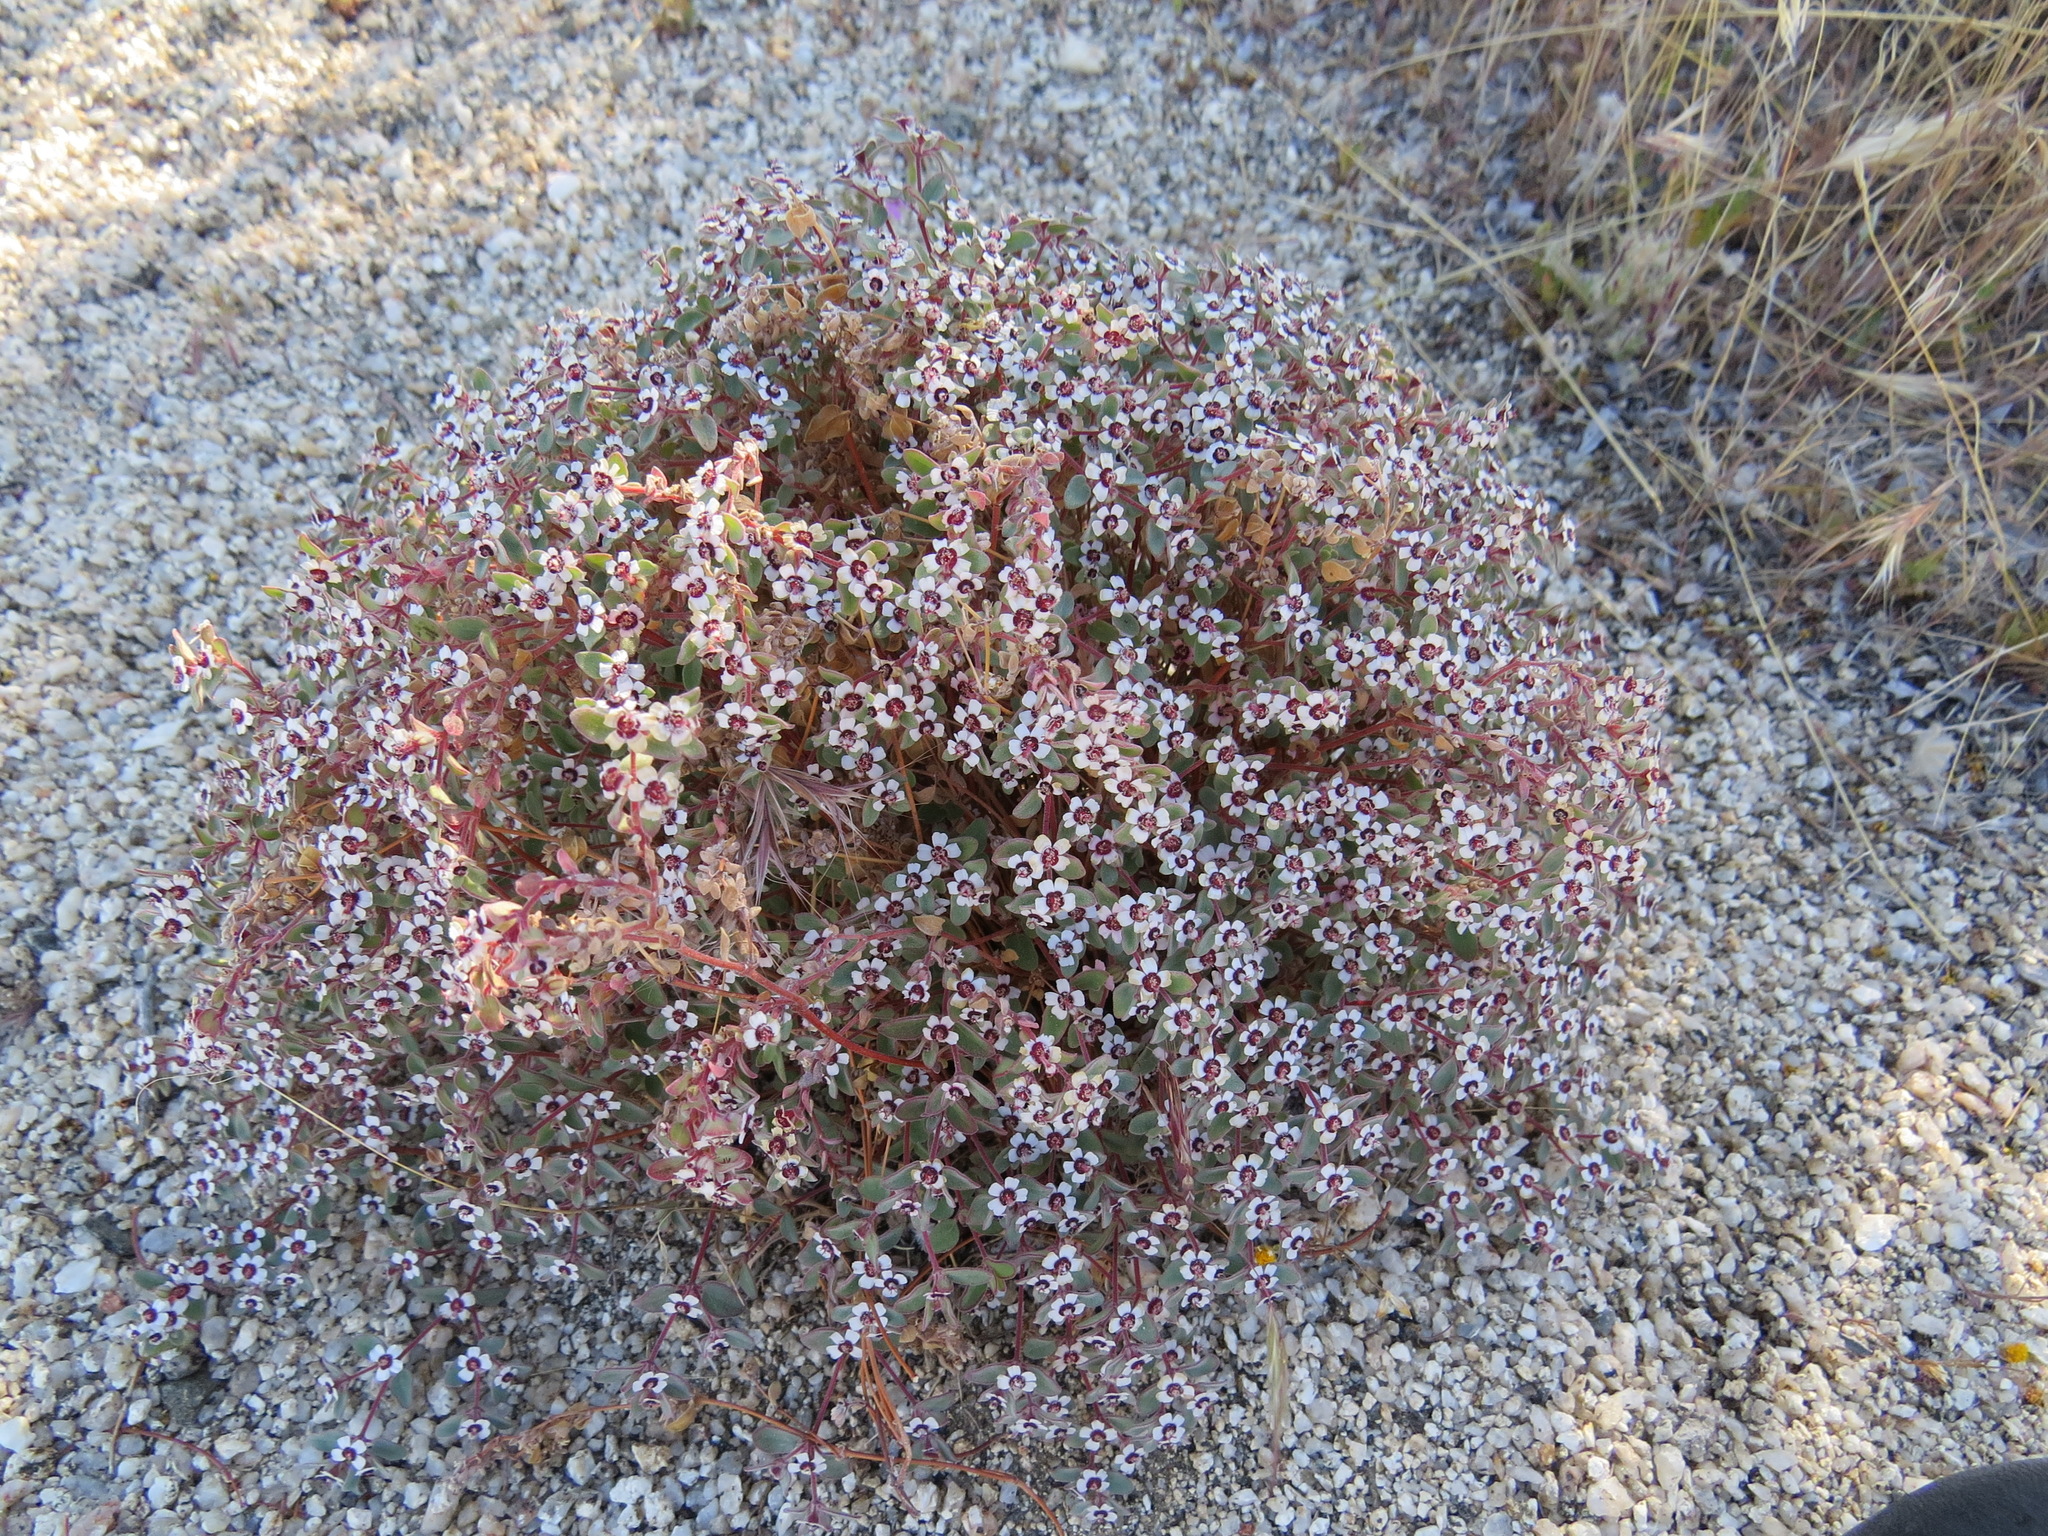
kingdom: Plantae
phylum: Tracheophyta
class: Magnoliopsida
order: Malpighiales
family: Euphorbiaceae
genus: Euphorbia
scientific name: Euphorbia melanadenia
